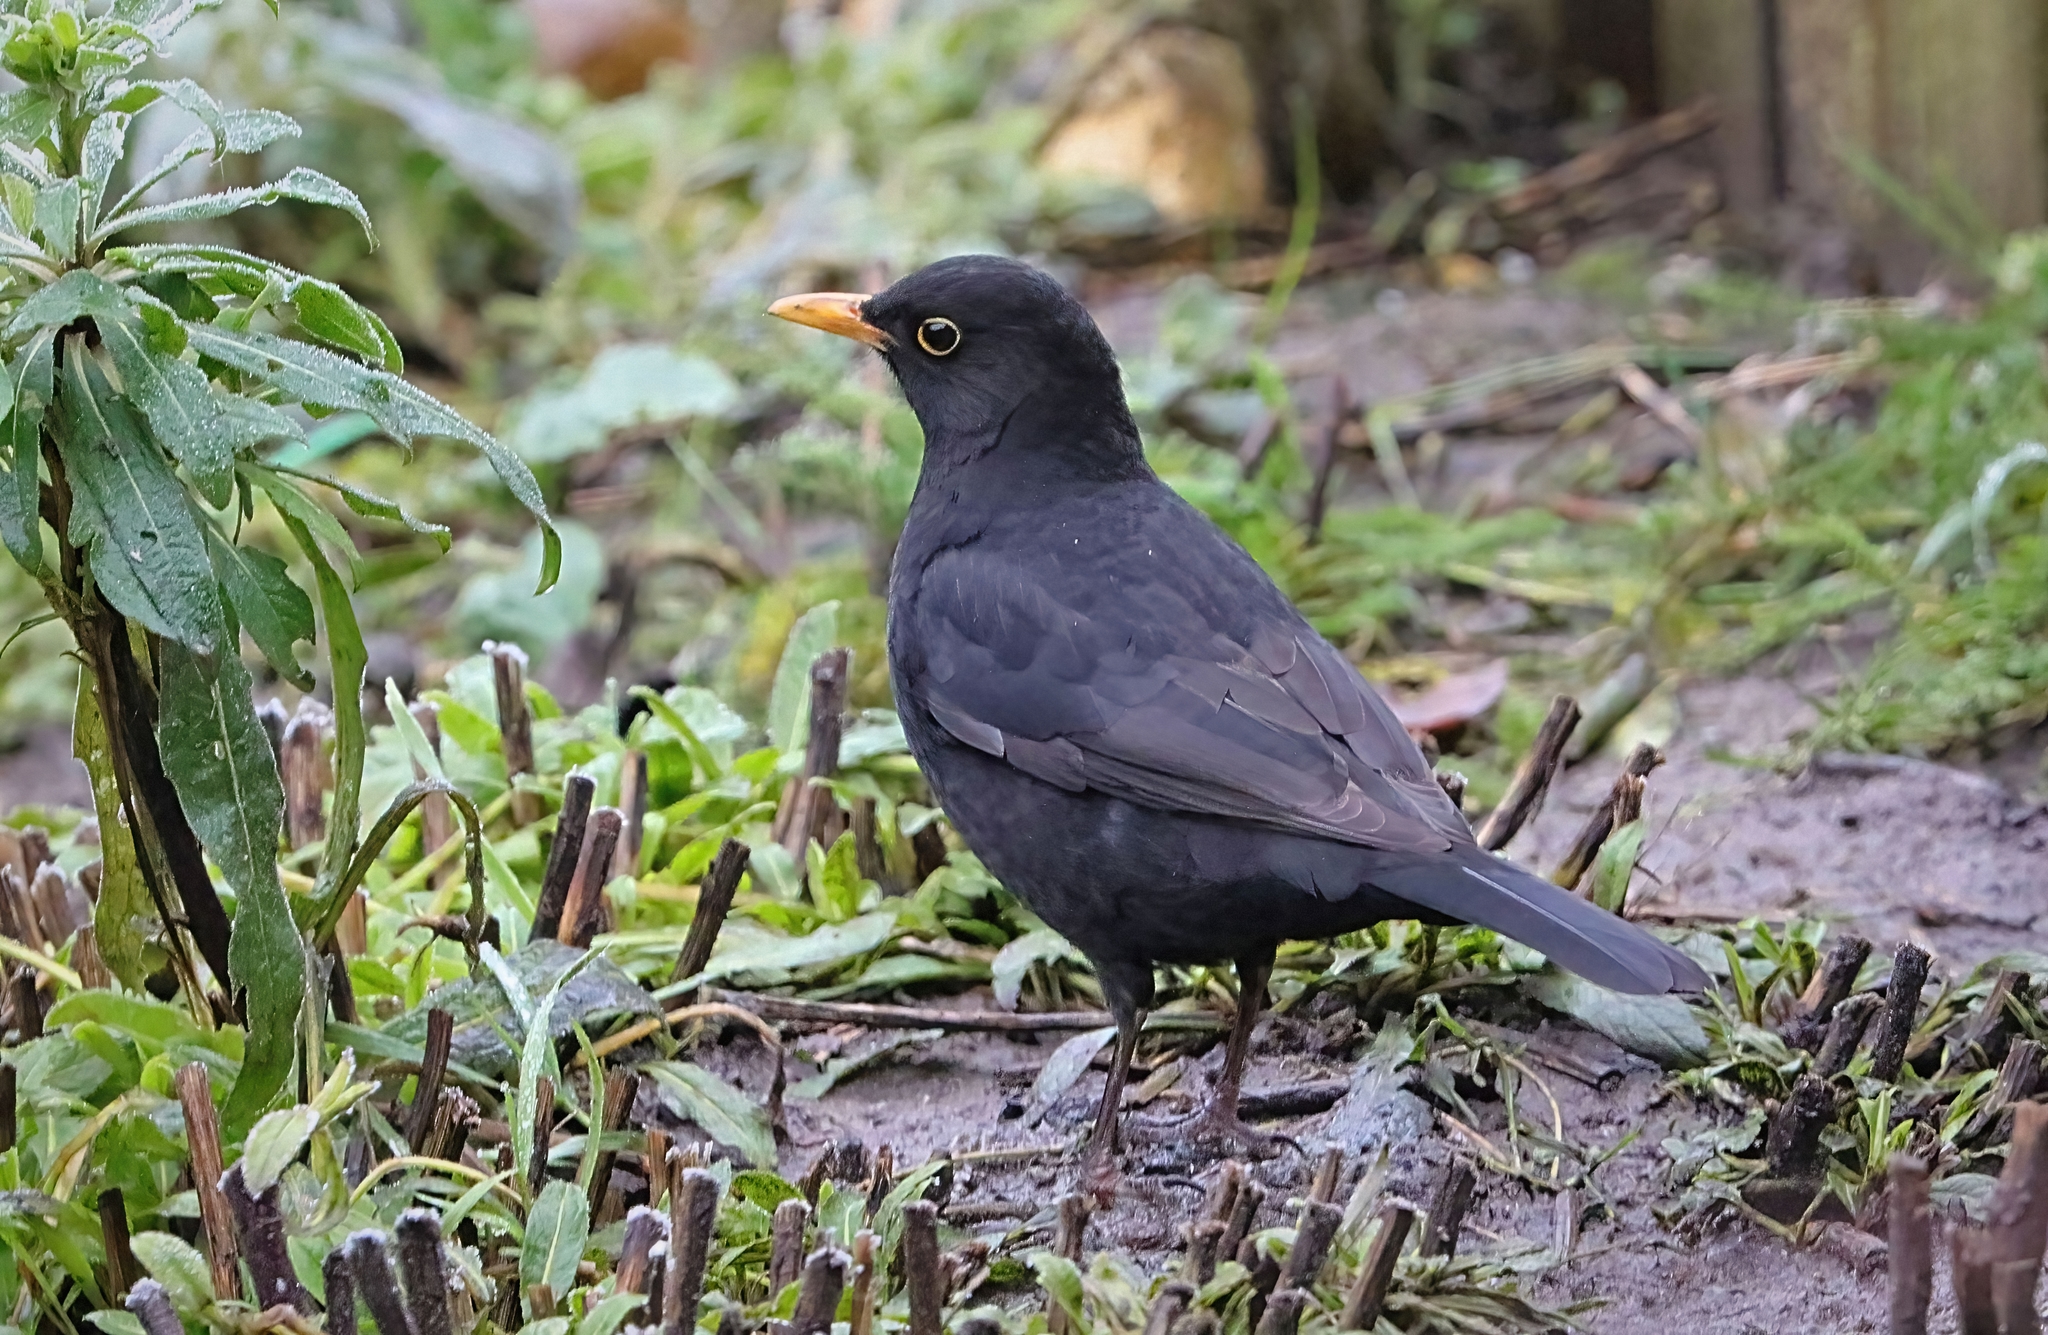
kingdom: Animalia
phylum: Chordata
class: Aves
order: Passeriformes
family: Turdidae
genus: Turdus
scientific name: Turdus merula
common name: Common blackbird
